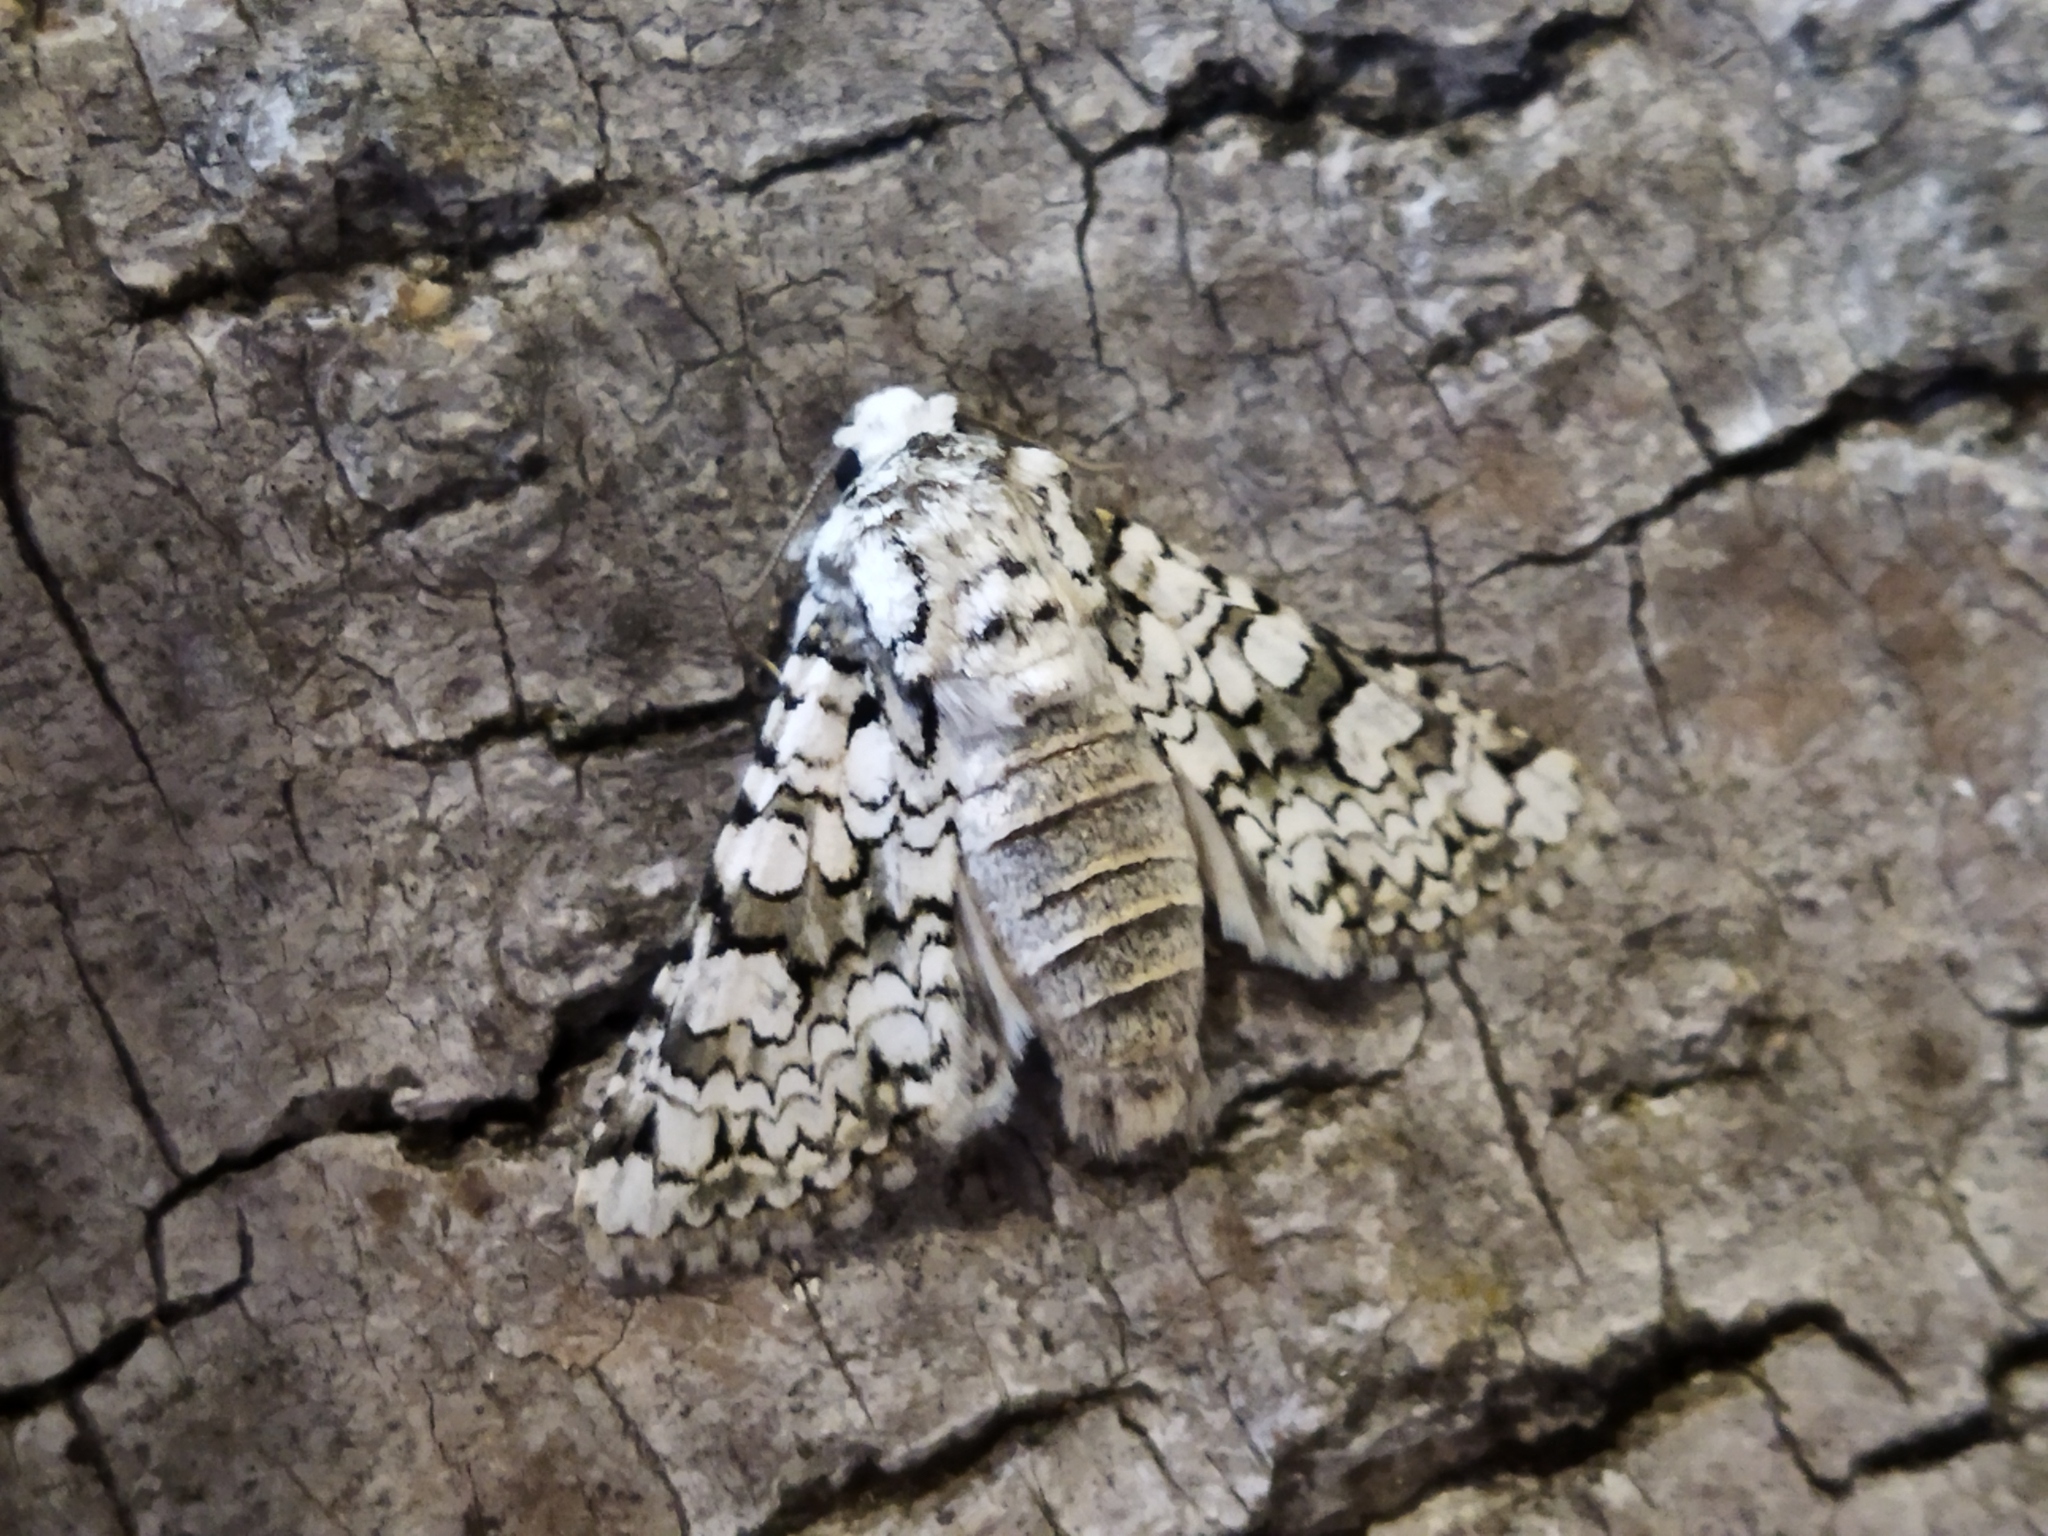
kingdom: Animalia
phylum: Arthropoda
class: Insecta
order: Lepidoptera
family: Noctuidae
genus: Hecatera
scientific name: Hecatera cappa
